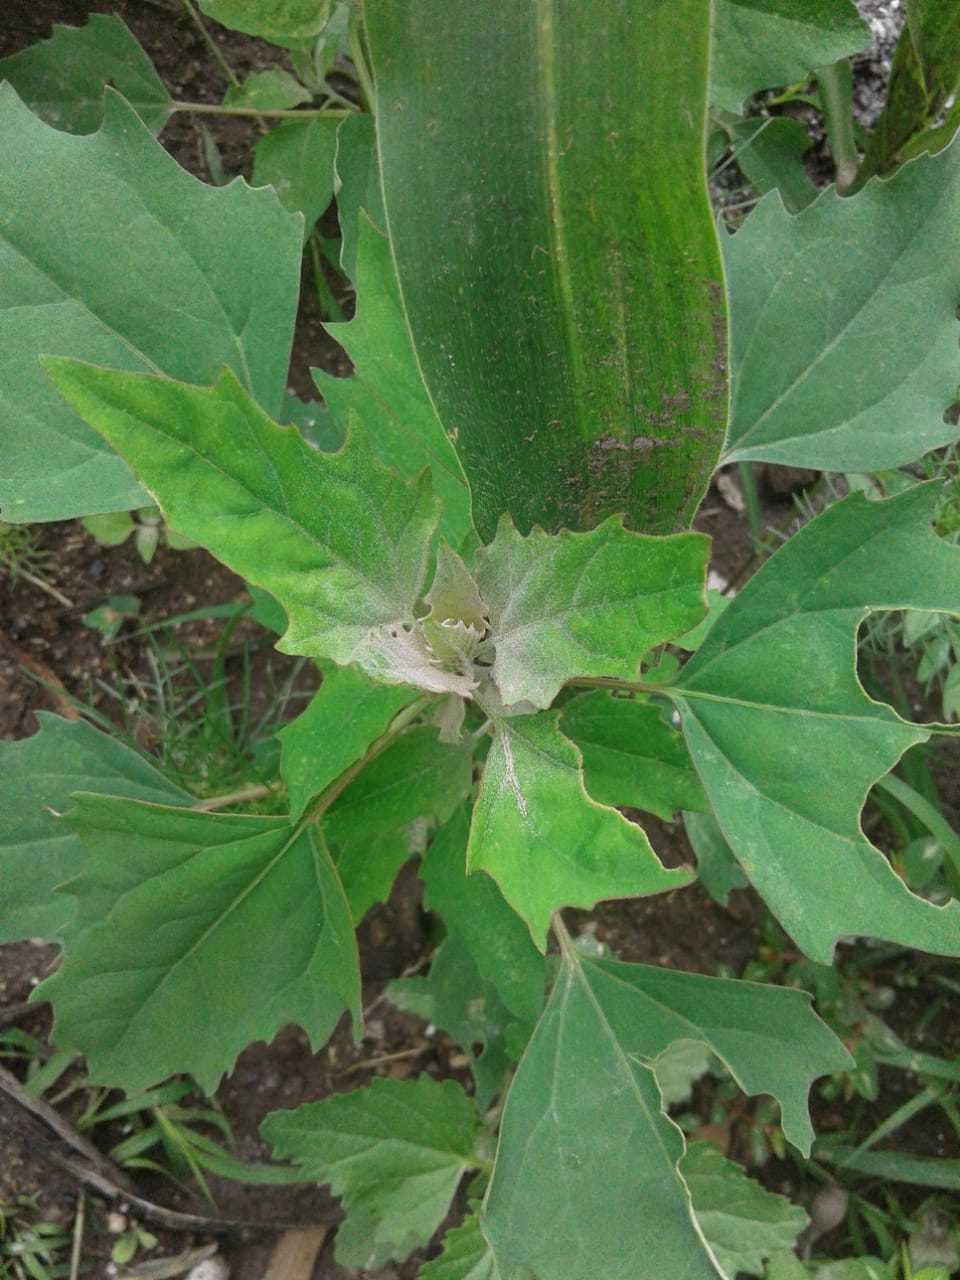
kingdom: Plantae
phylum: Tracheophyta
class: Magnoliopsida
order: Caryophyllales
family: Amaranthaceae
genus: Chenopodium
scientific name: Chenopodium giganteum
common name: Magentaspreen
